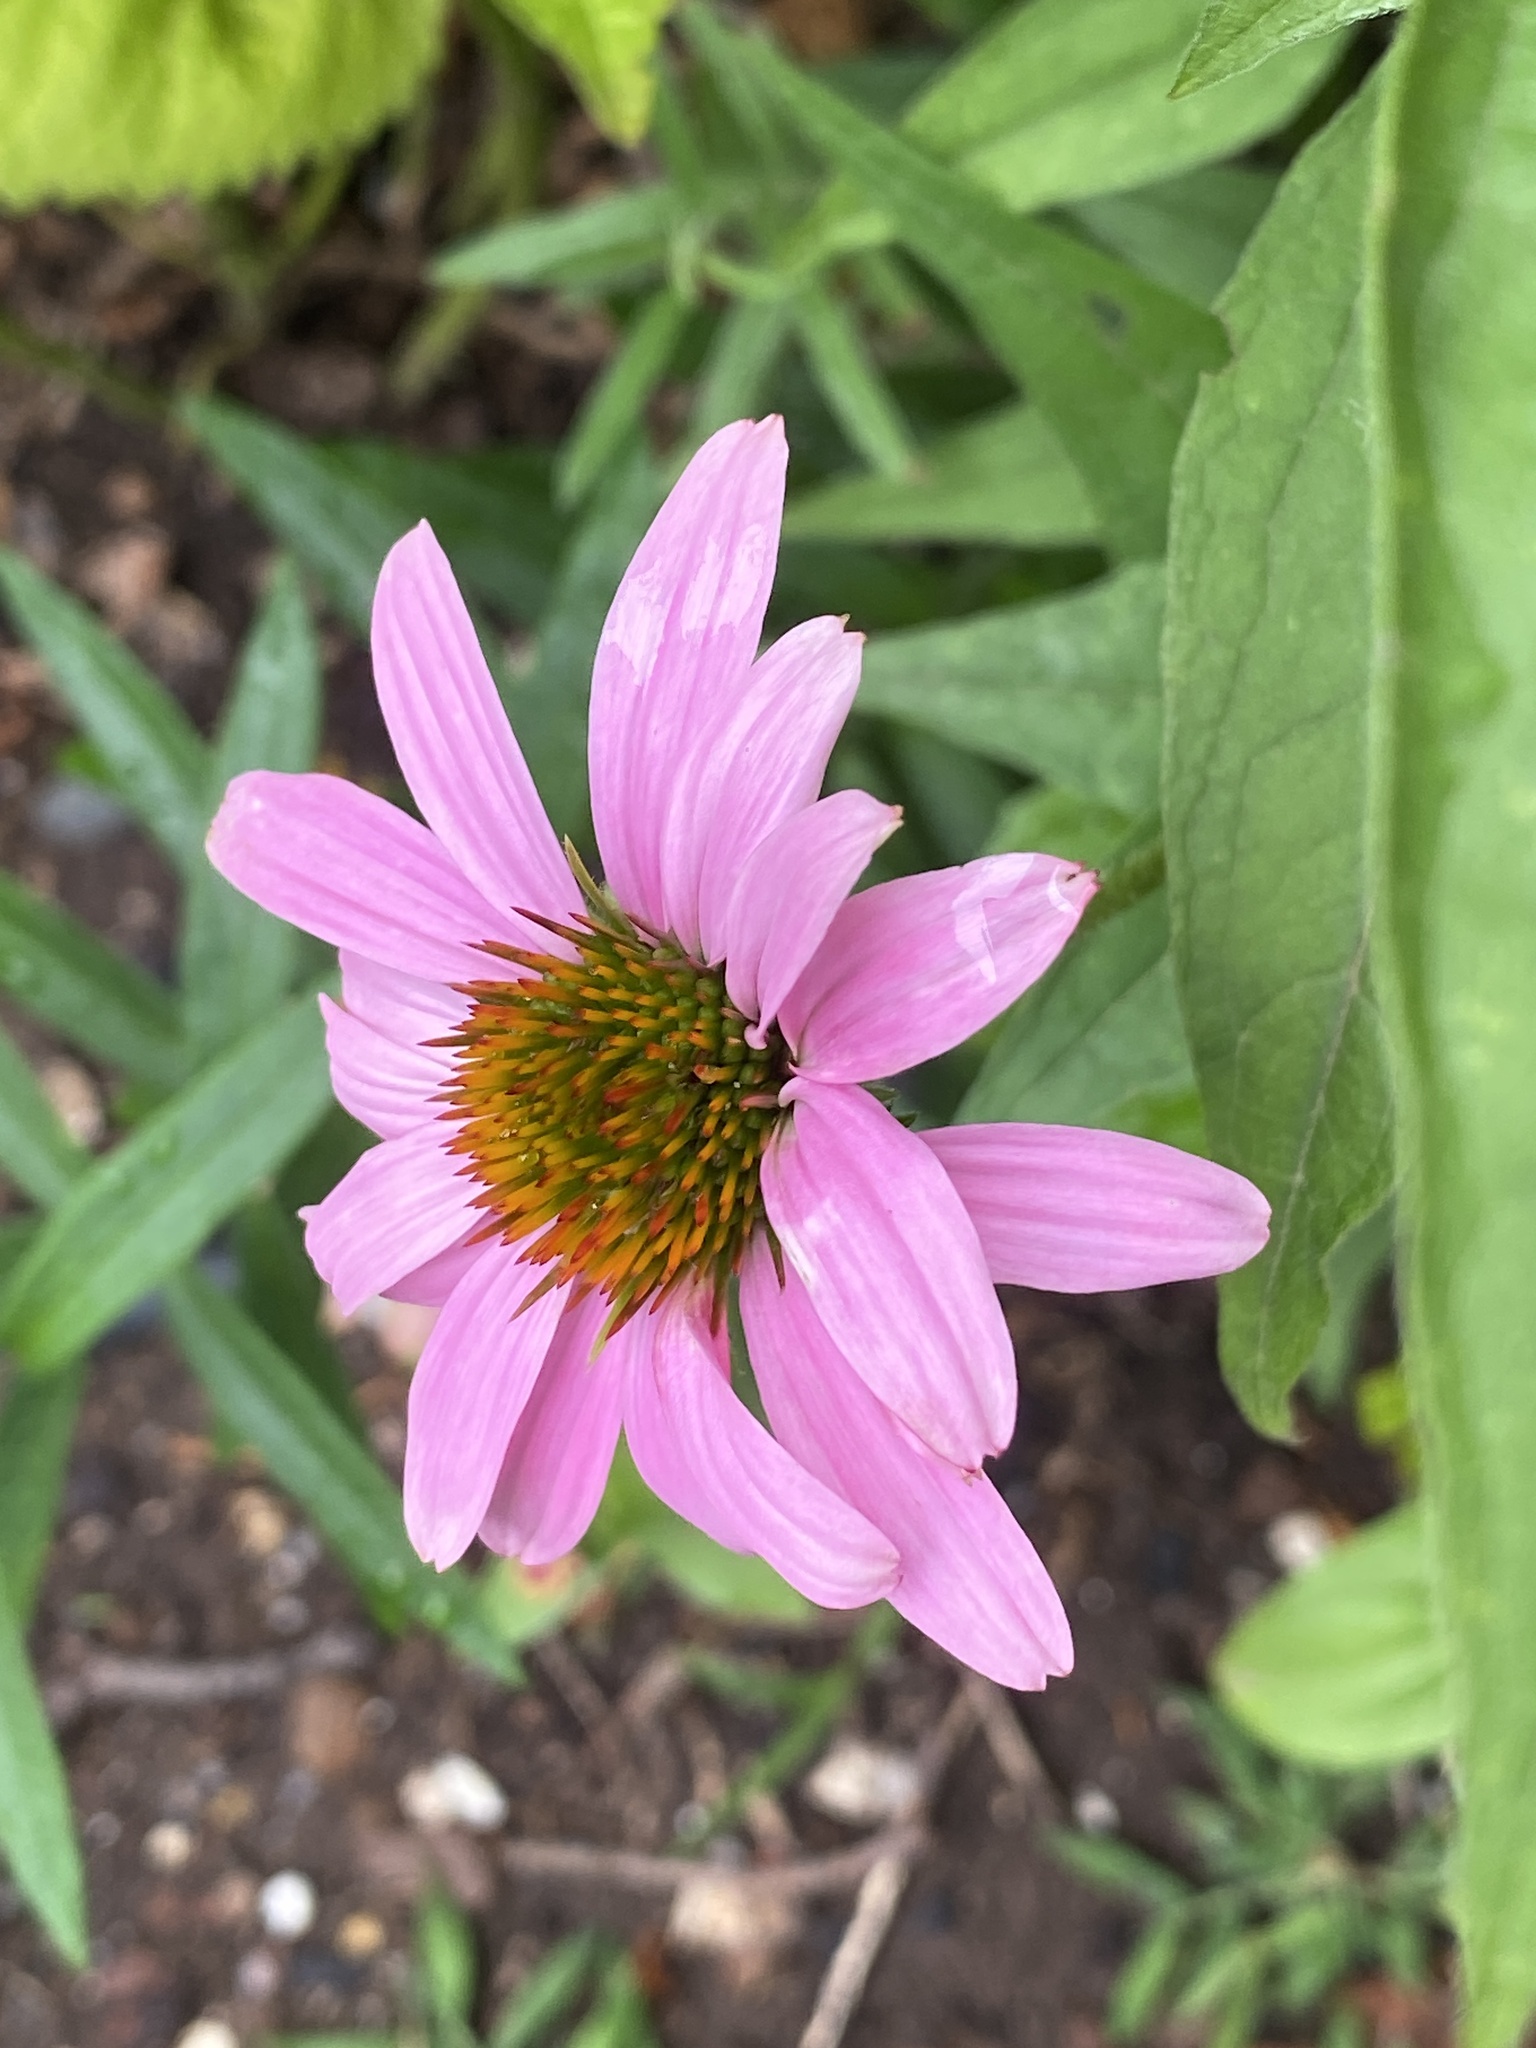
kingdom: Plantae
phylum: Tracheophyta
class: Magnoliopsida
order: Asterales
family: Asteraceae
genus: Echinacea
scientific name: Echinacea purpurea
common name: Broad-leaved purple coneflower
